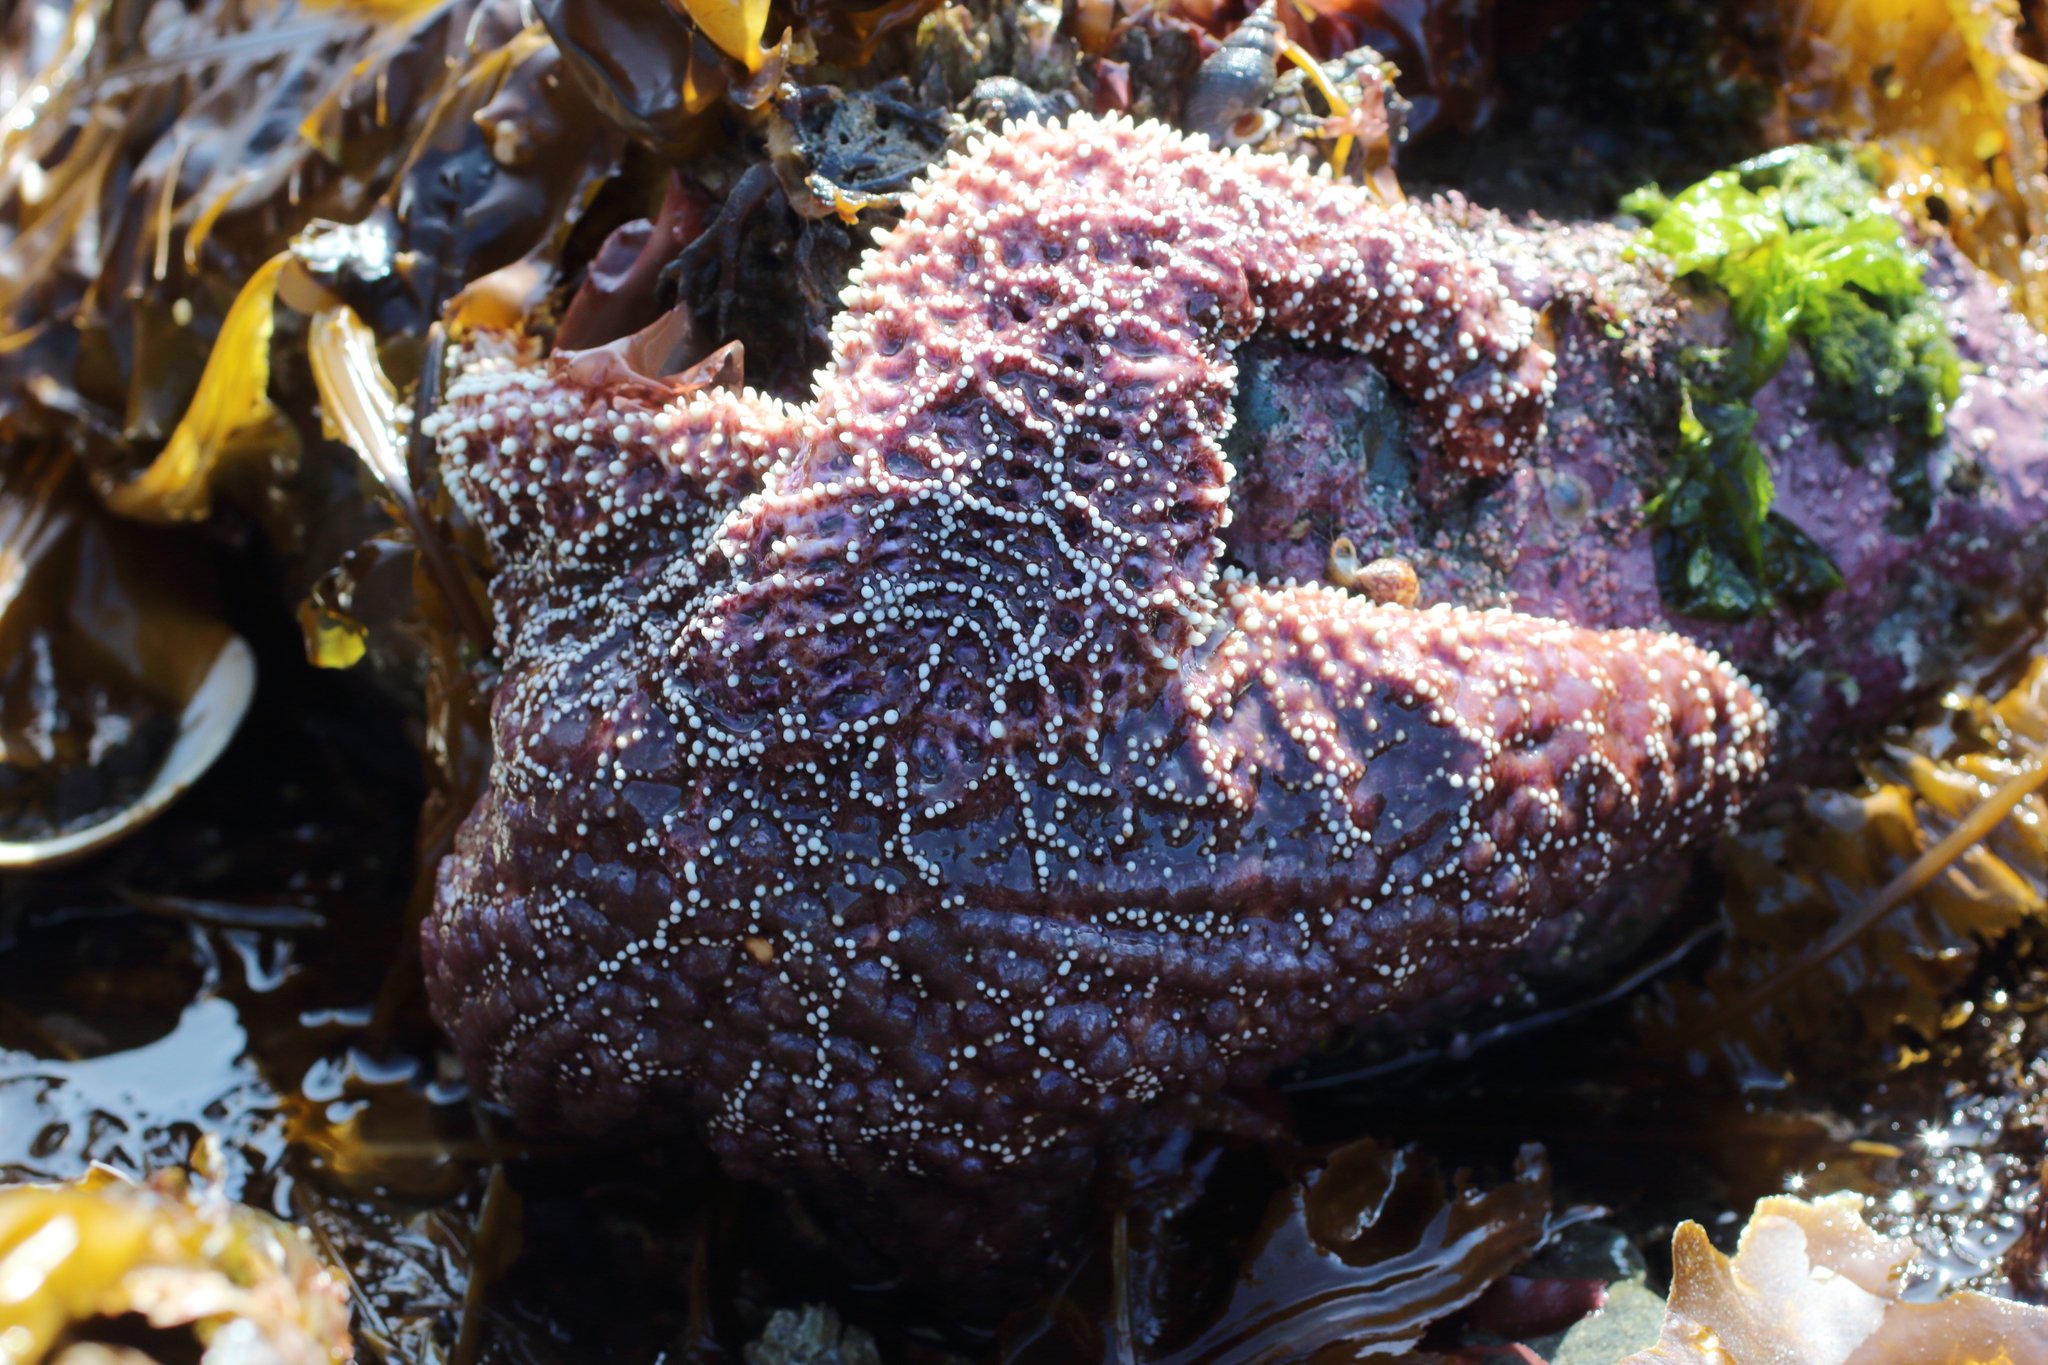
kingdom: Animalia
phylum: Echinodermata
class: Asteroidea
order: Forcipulatida
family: Asteriidae
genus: Pisaster
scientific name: Pisaster ochraceus
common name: Ochre stars
